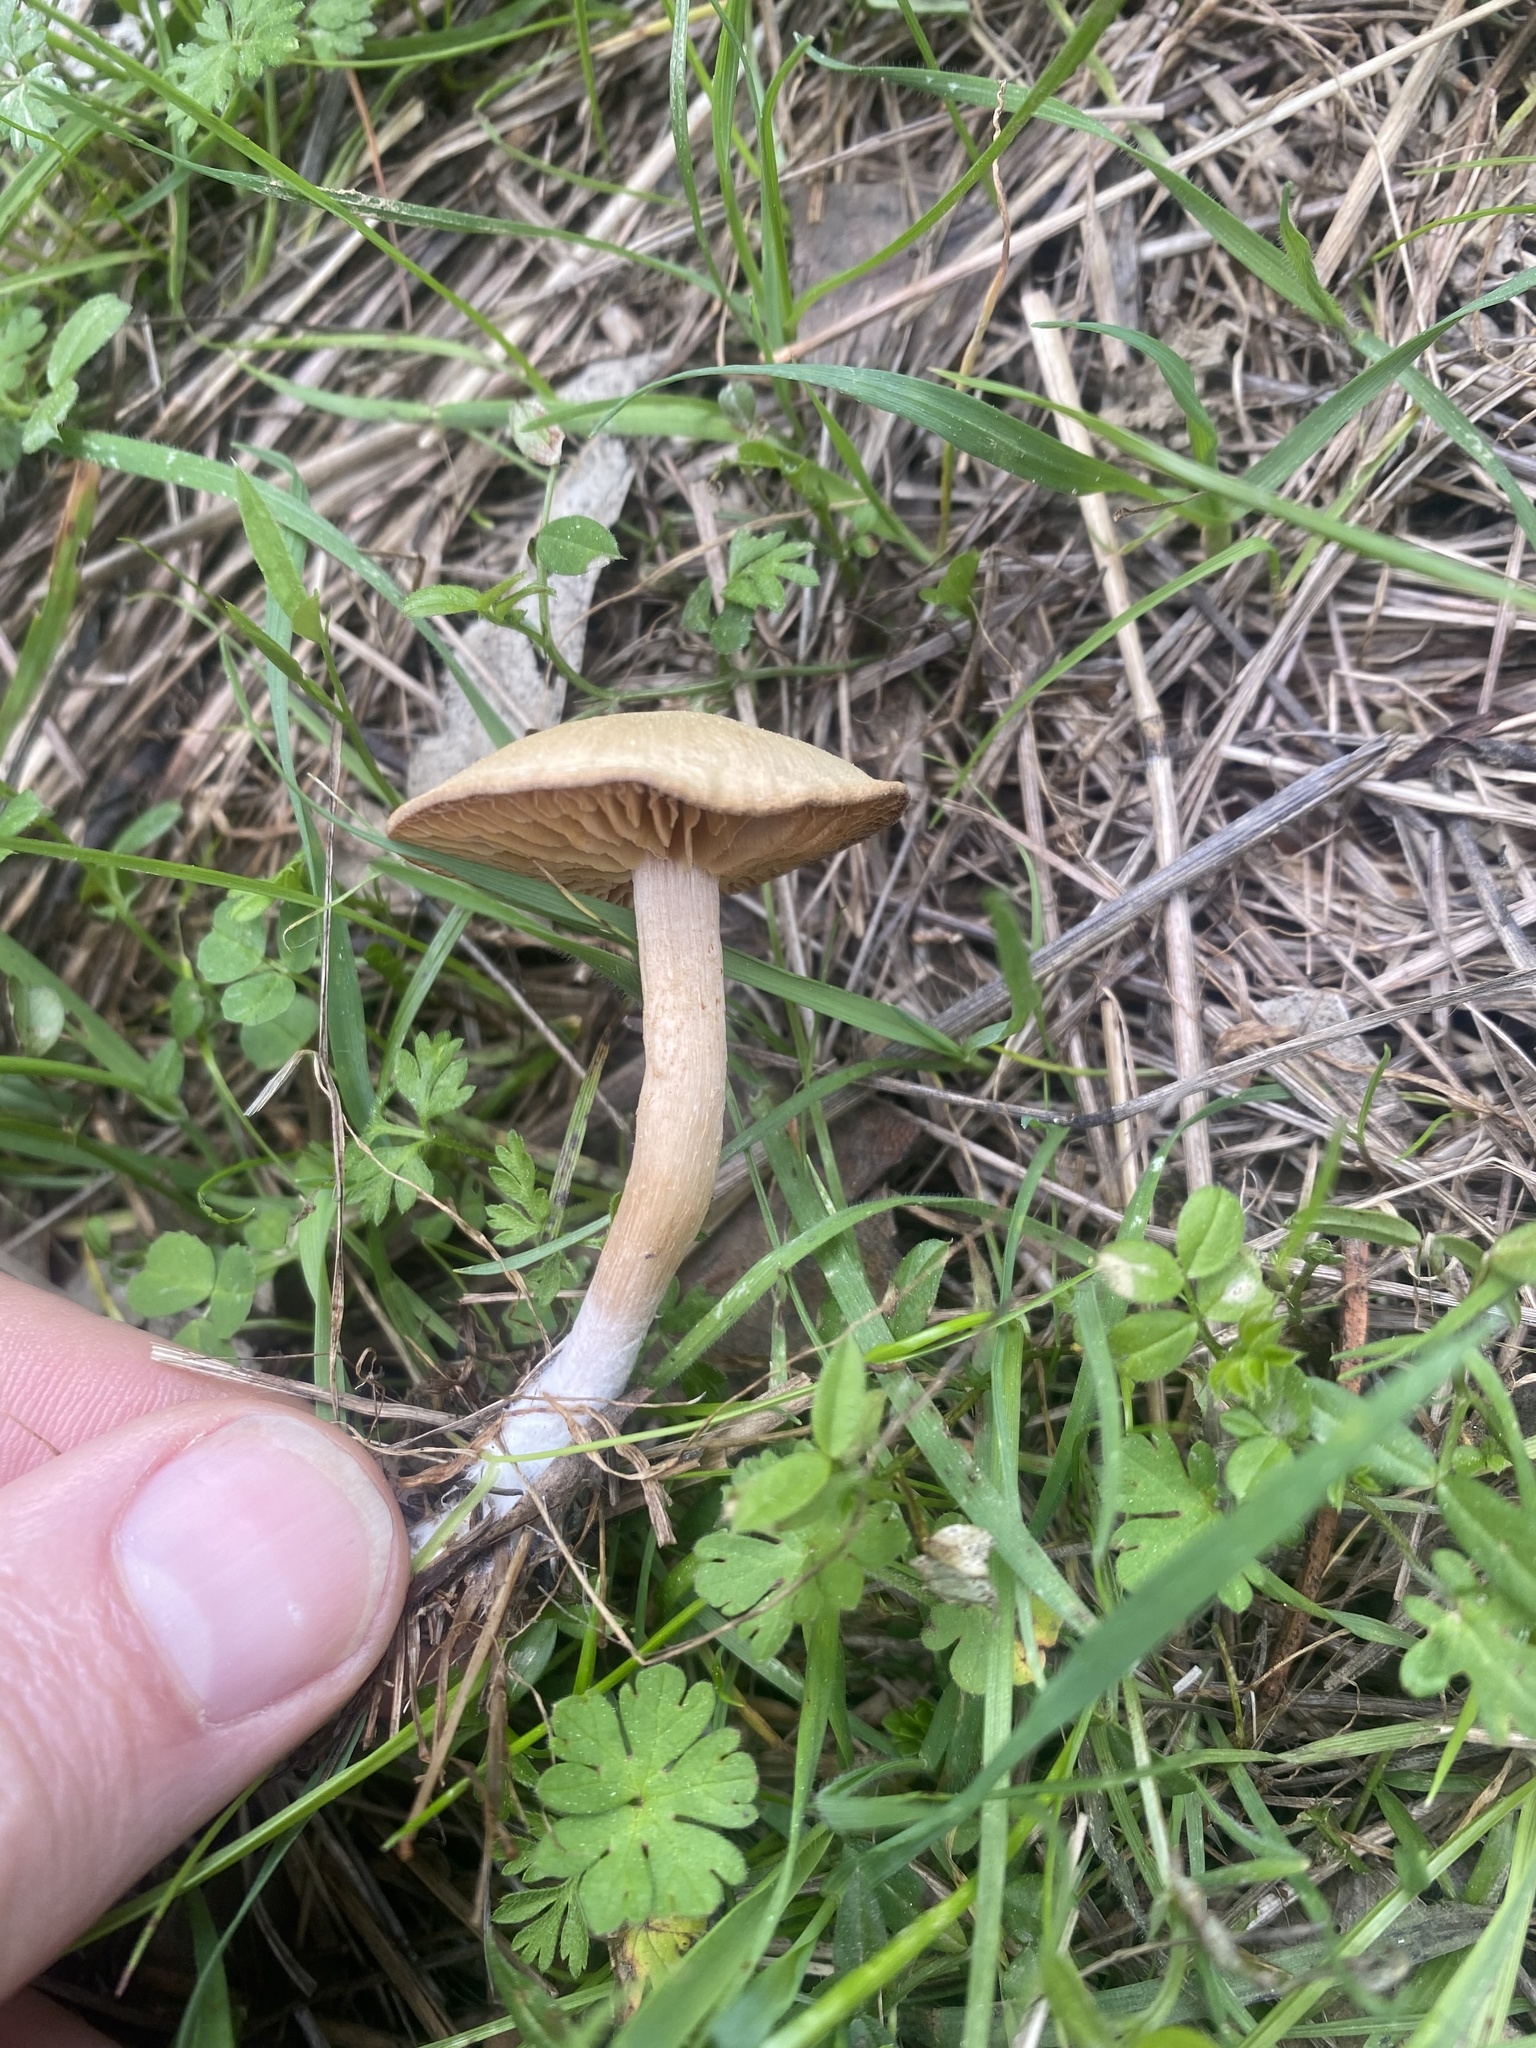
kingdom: Fungi
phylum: Basidiomycota
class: Agaricomycetes
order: Agaricales
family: Strophariaceae
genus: Agrocybe
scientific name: Agrocybe pediades
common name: Common fieldcap
